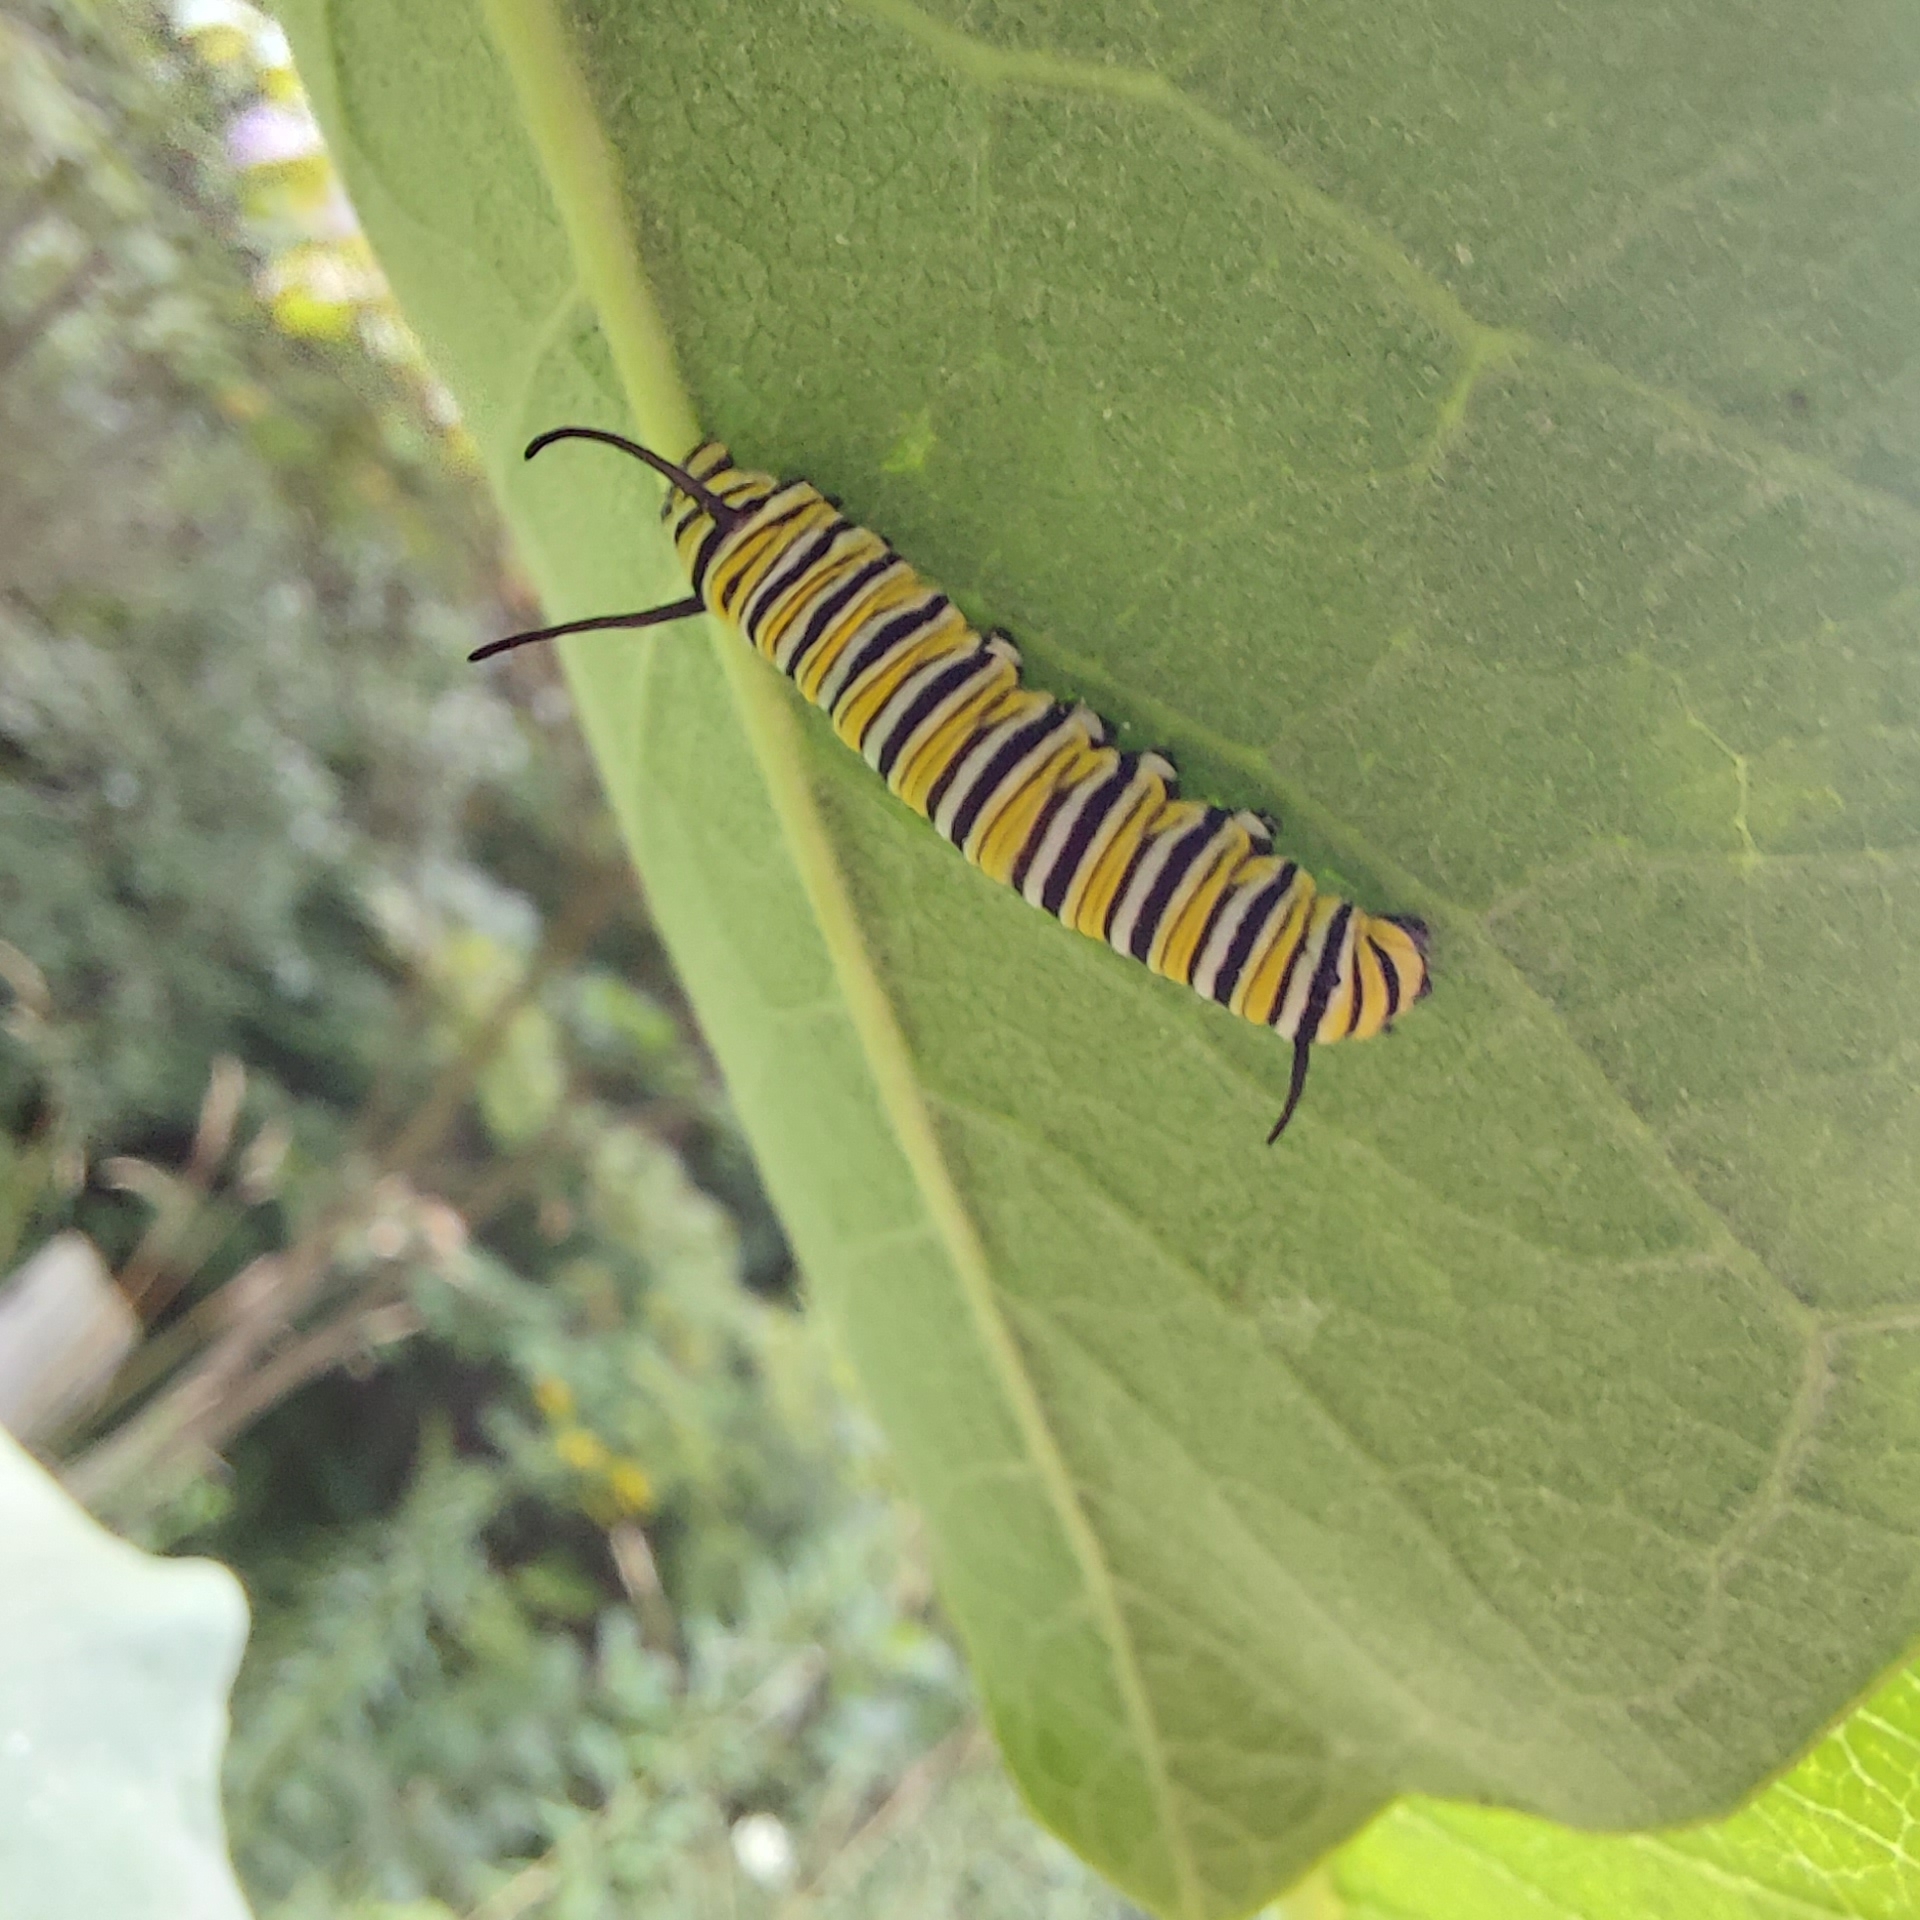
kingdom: Animalia
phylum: Arthropoda
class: Insecta
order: Lepidoptera
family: Nymphalidae
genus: Danaus
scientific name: Danaus plexippus
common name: Monarch
